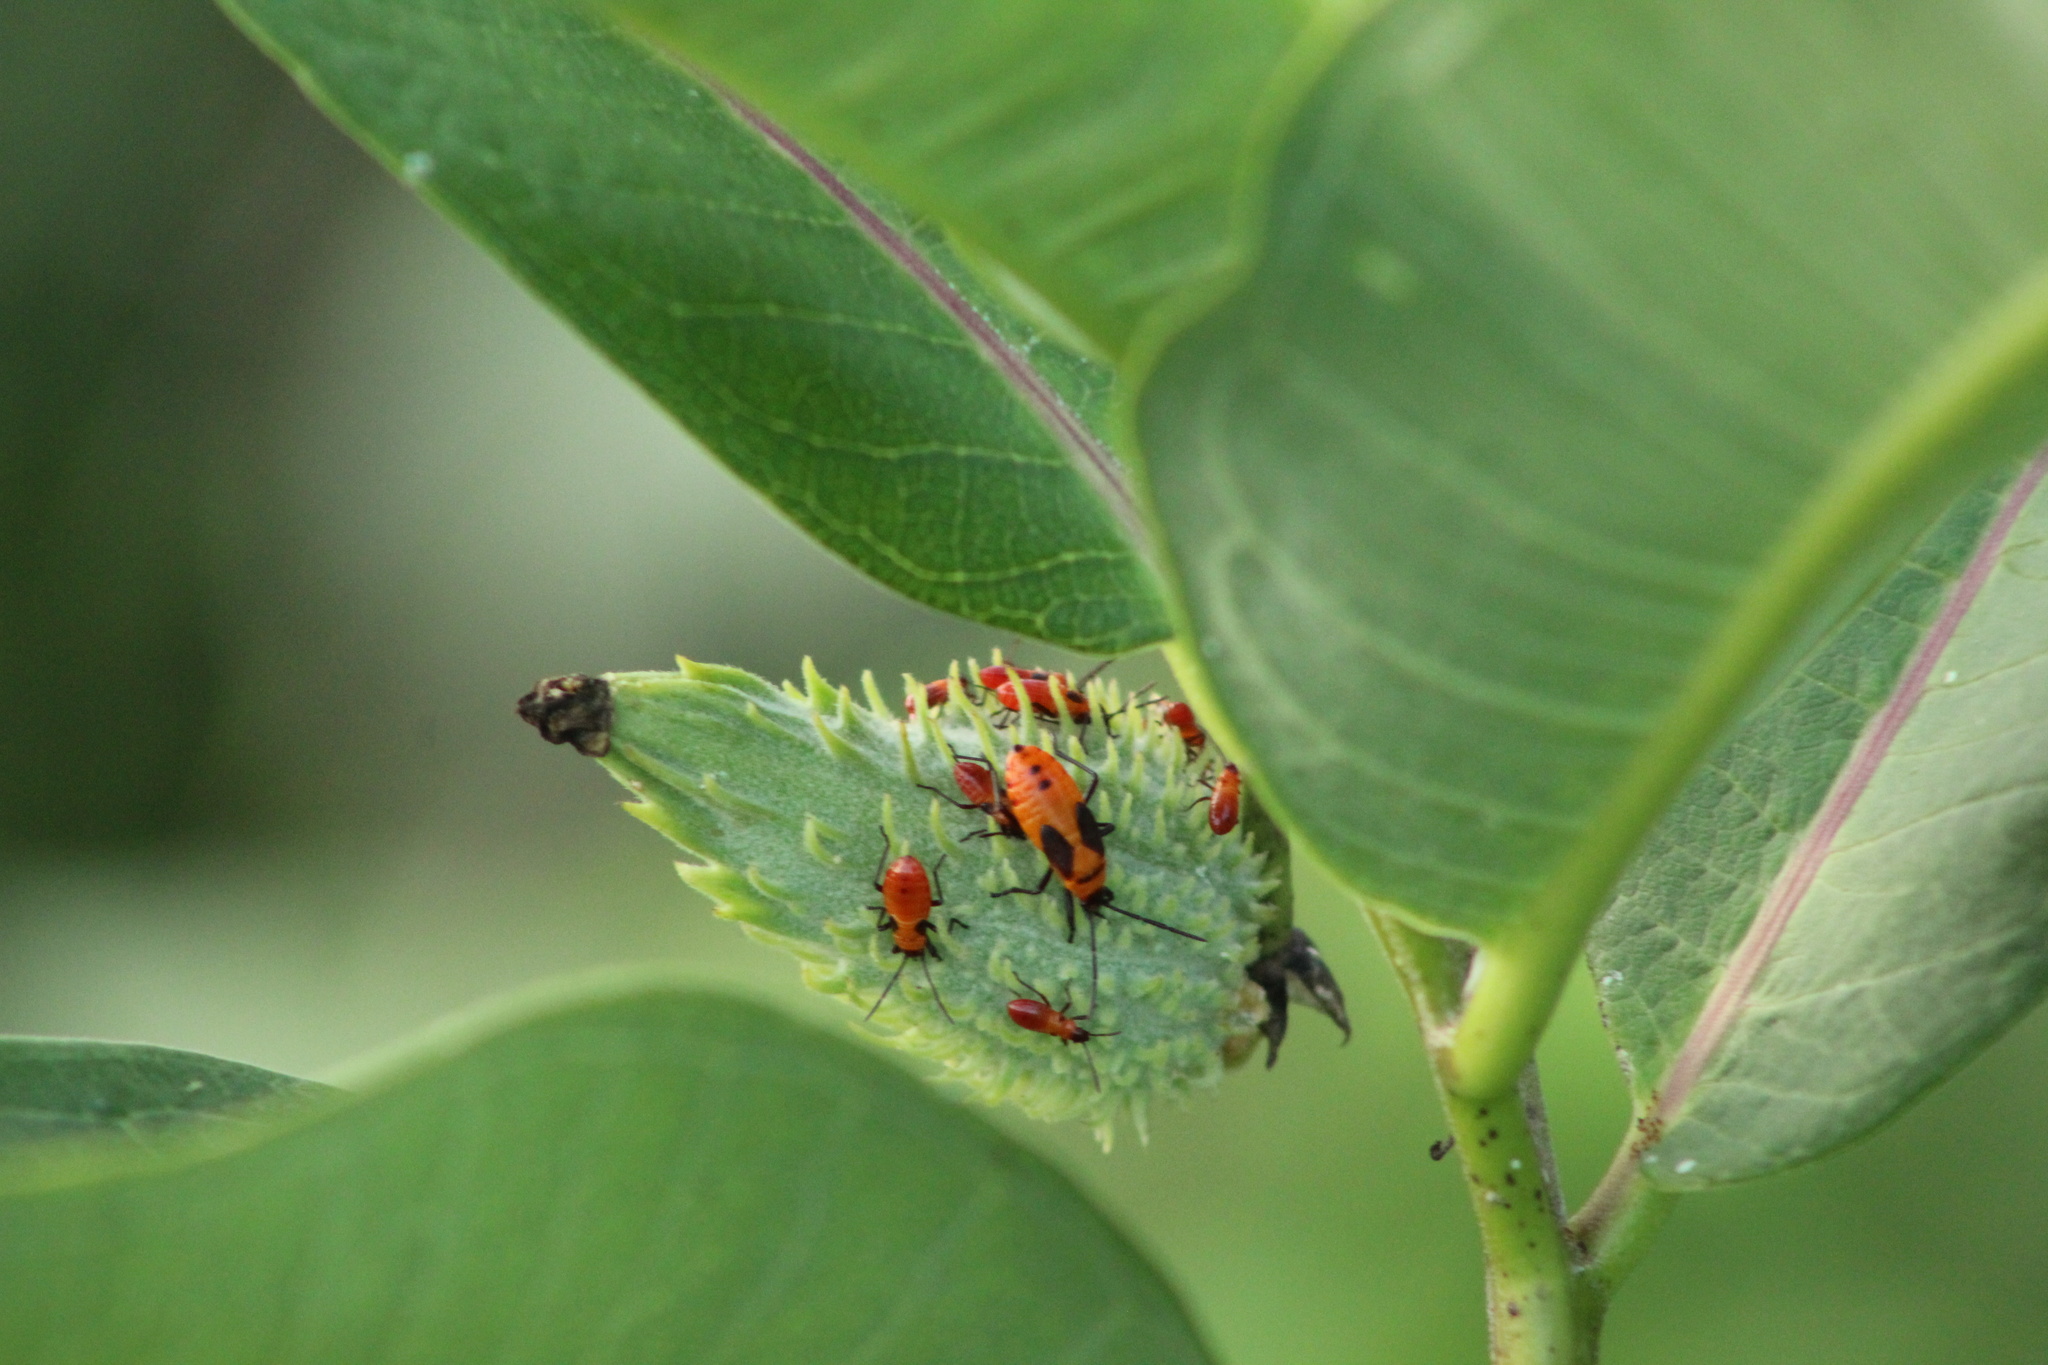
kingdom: Animalia
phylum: Arthropoda
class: Insecta
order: Hemiptera
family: Lygaeidae
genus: Oncopeltus
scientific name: Oncopeltus fasciatus
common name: Large milkweed bug
